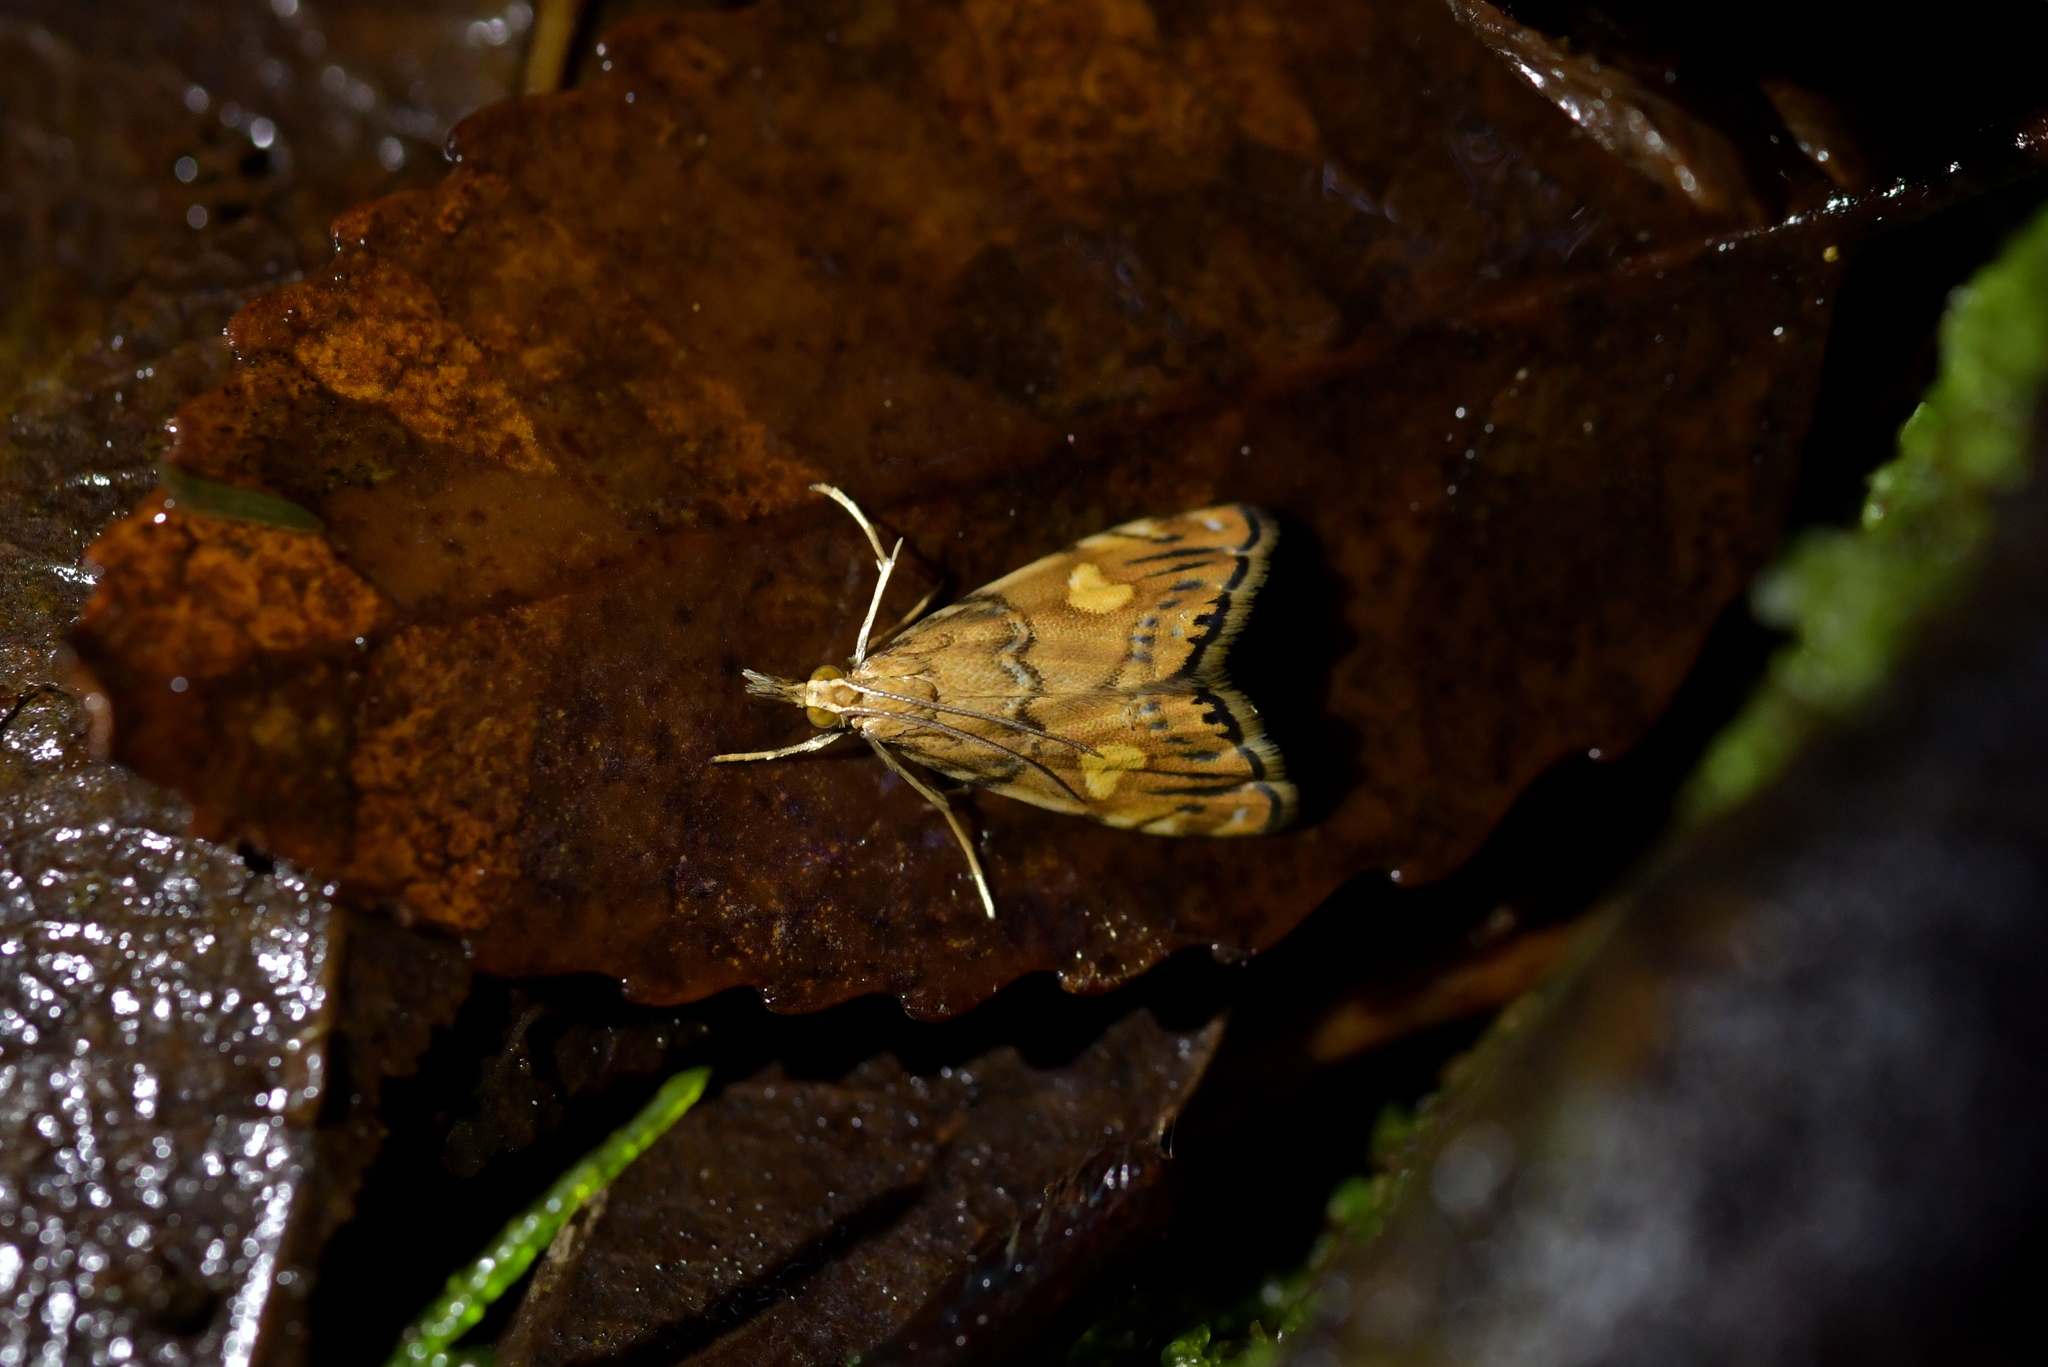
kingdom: Animalia
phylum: Arthropoda
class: Insecta
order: Lepidoptera
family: Crambidae
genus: Glaucocharis
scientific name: Glaucocharis leucoxantha
